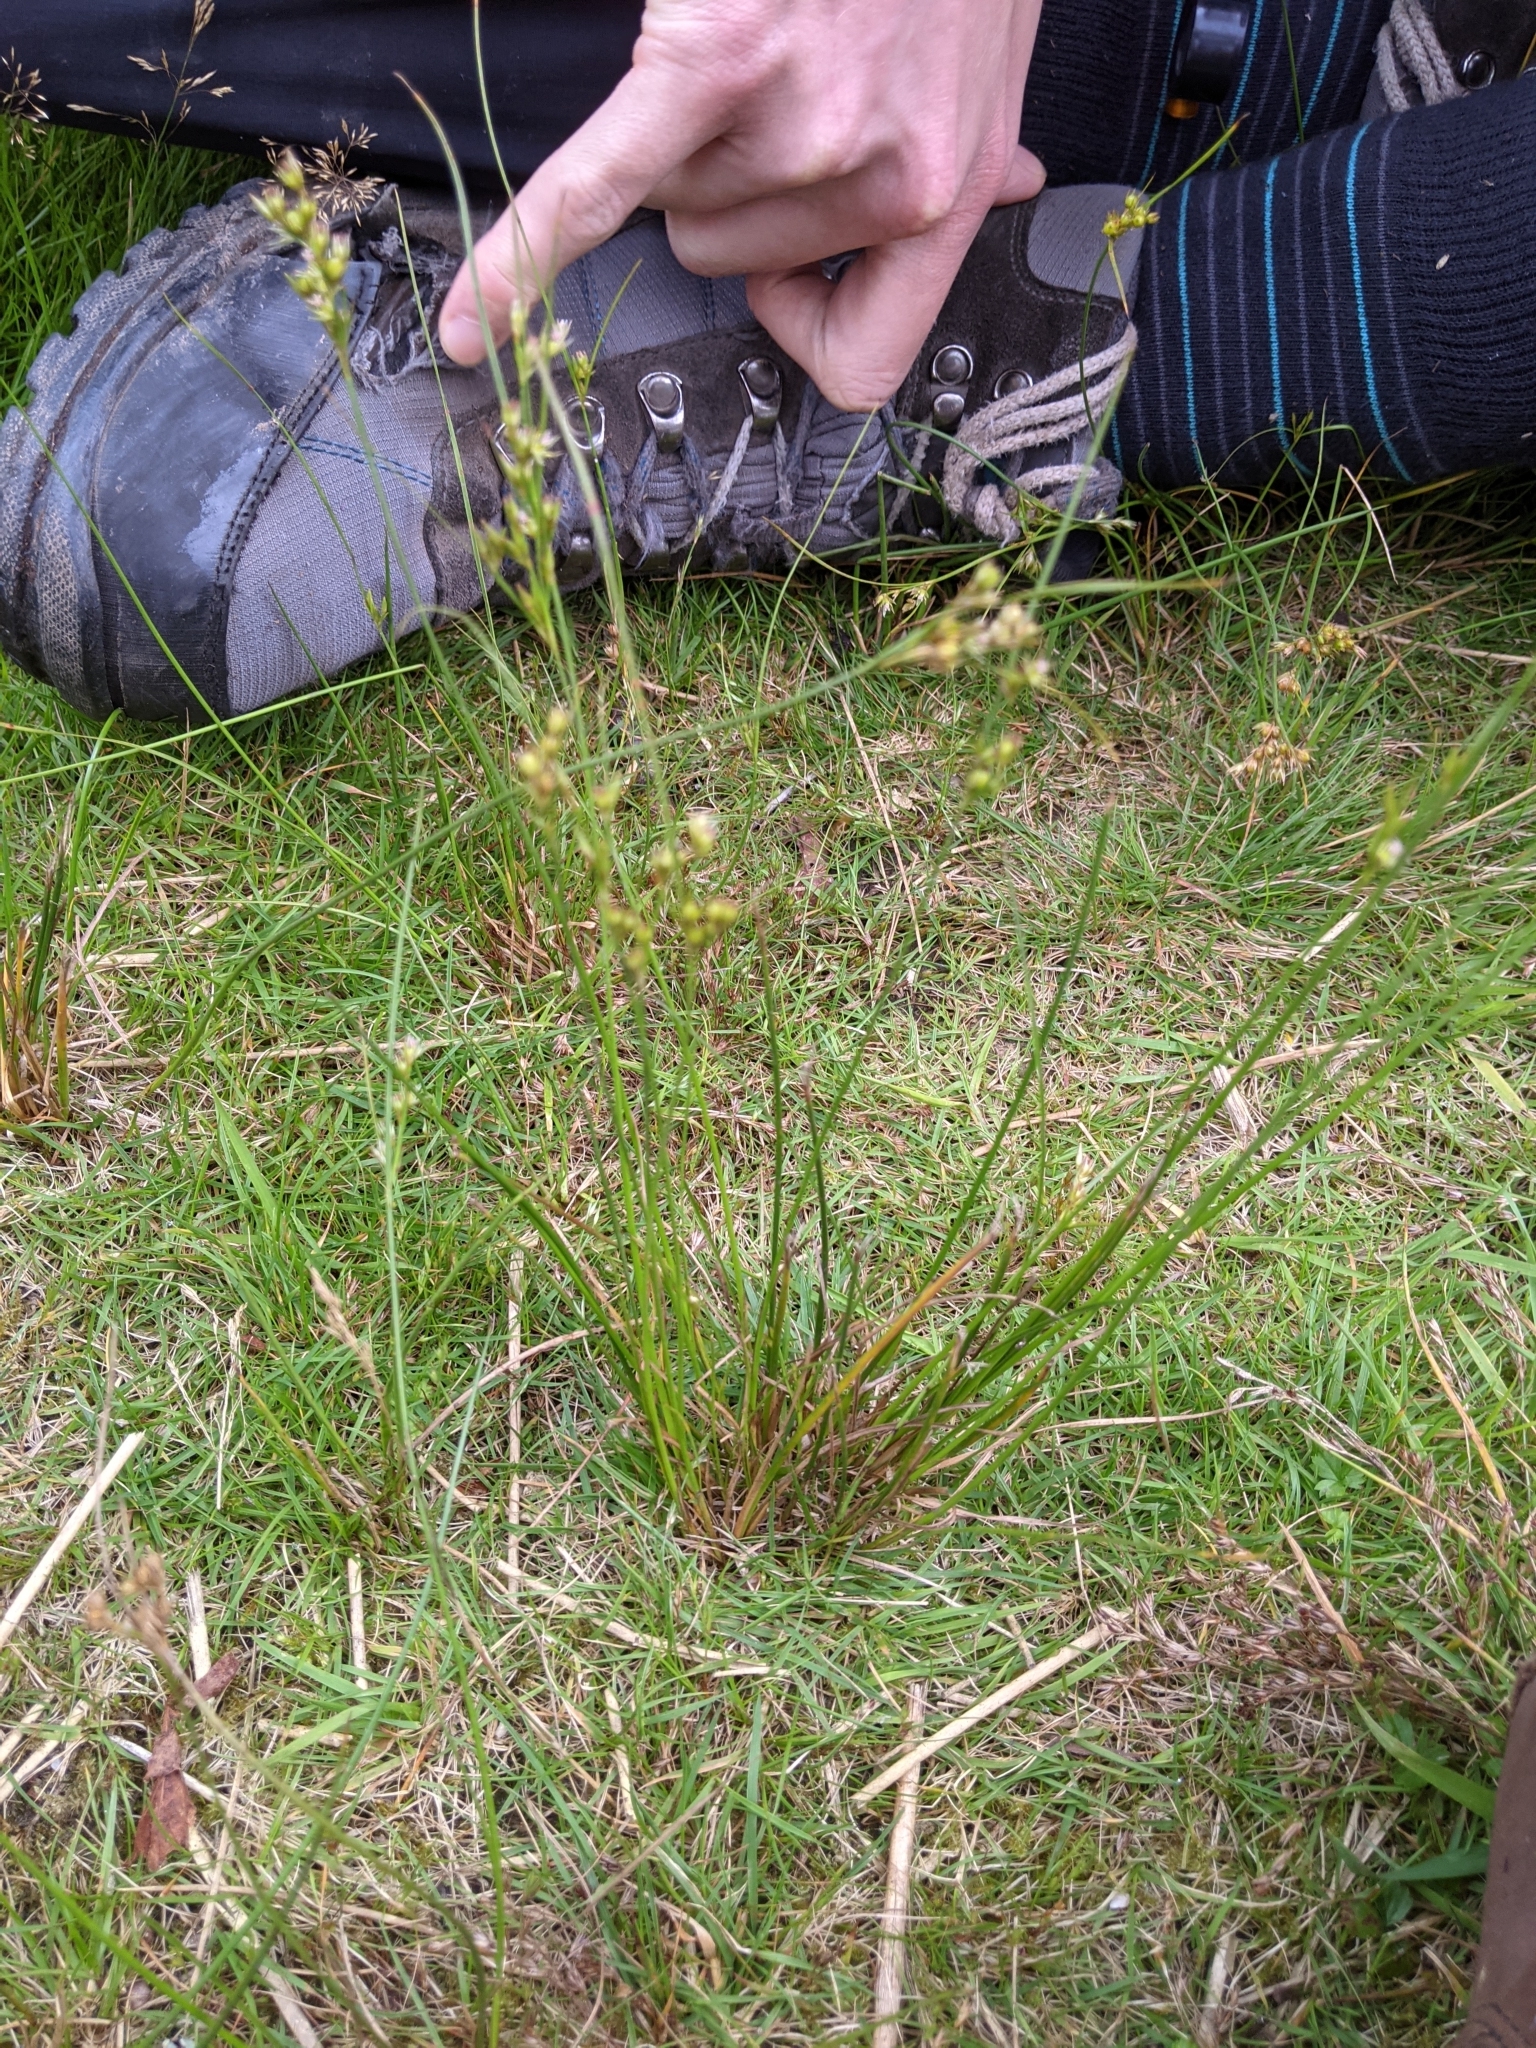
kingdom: Plantae
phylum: Tracheophyta
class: Liliopsida
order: Poales
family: Juncaceae
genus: Juncus
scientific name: Juncus tenuis
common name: Slender rush
